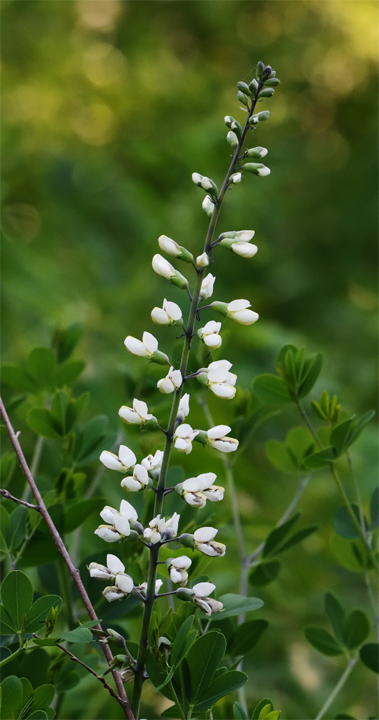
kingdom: Plantae
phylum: Tracheophyta
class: Magnoliopsida
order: Fabales
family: Fabaceae
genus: Baptisia
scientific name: Baptisia alba
